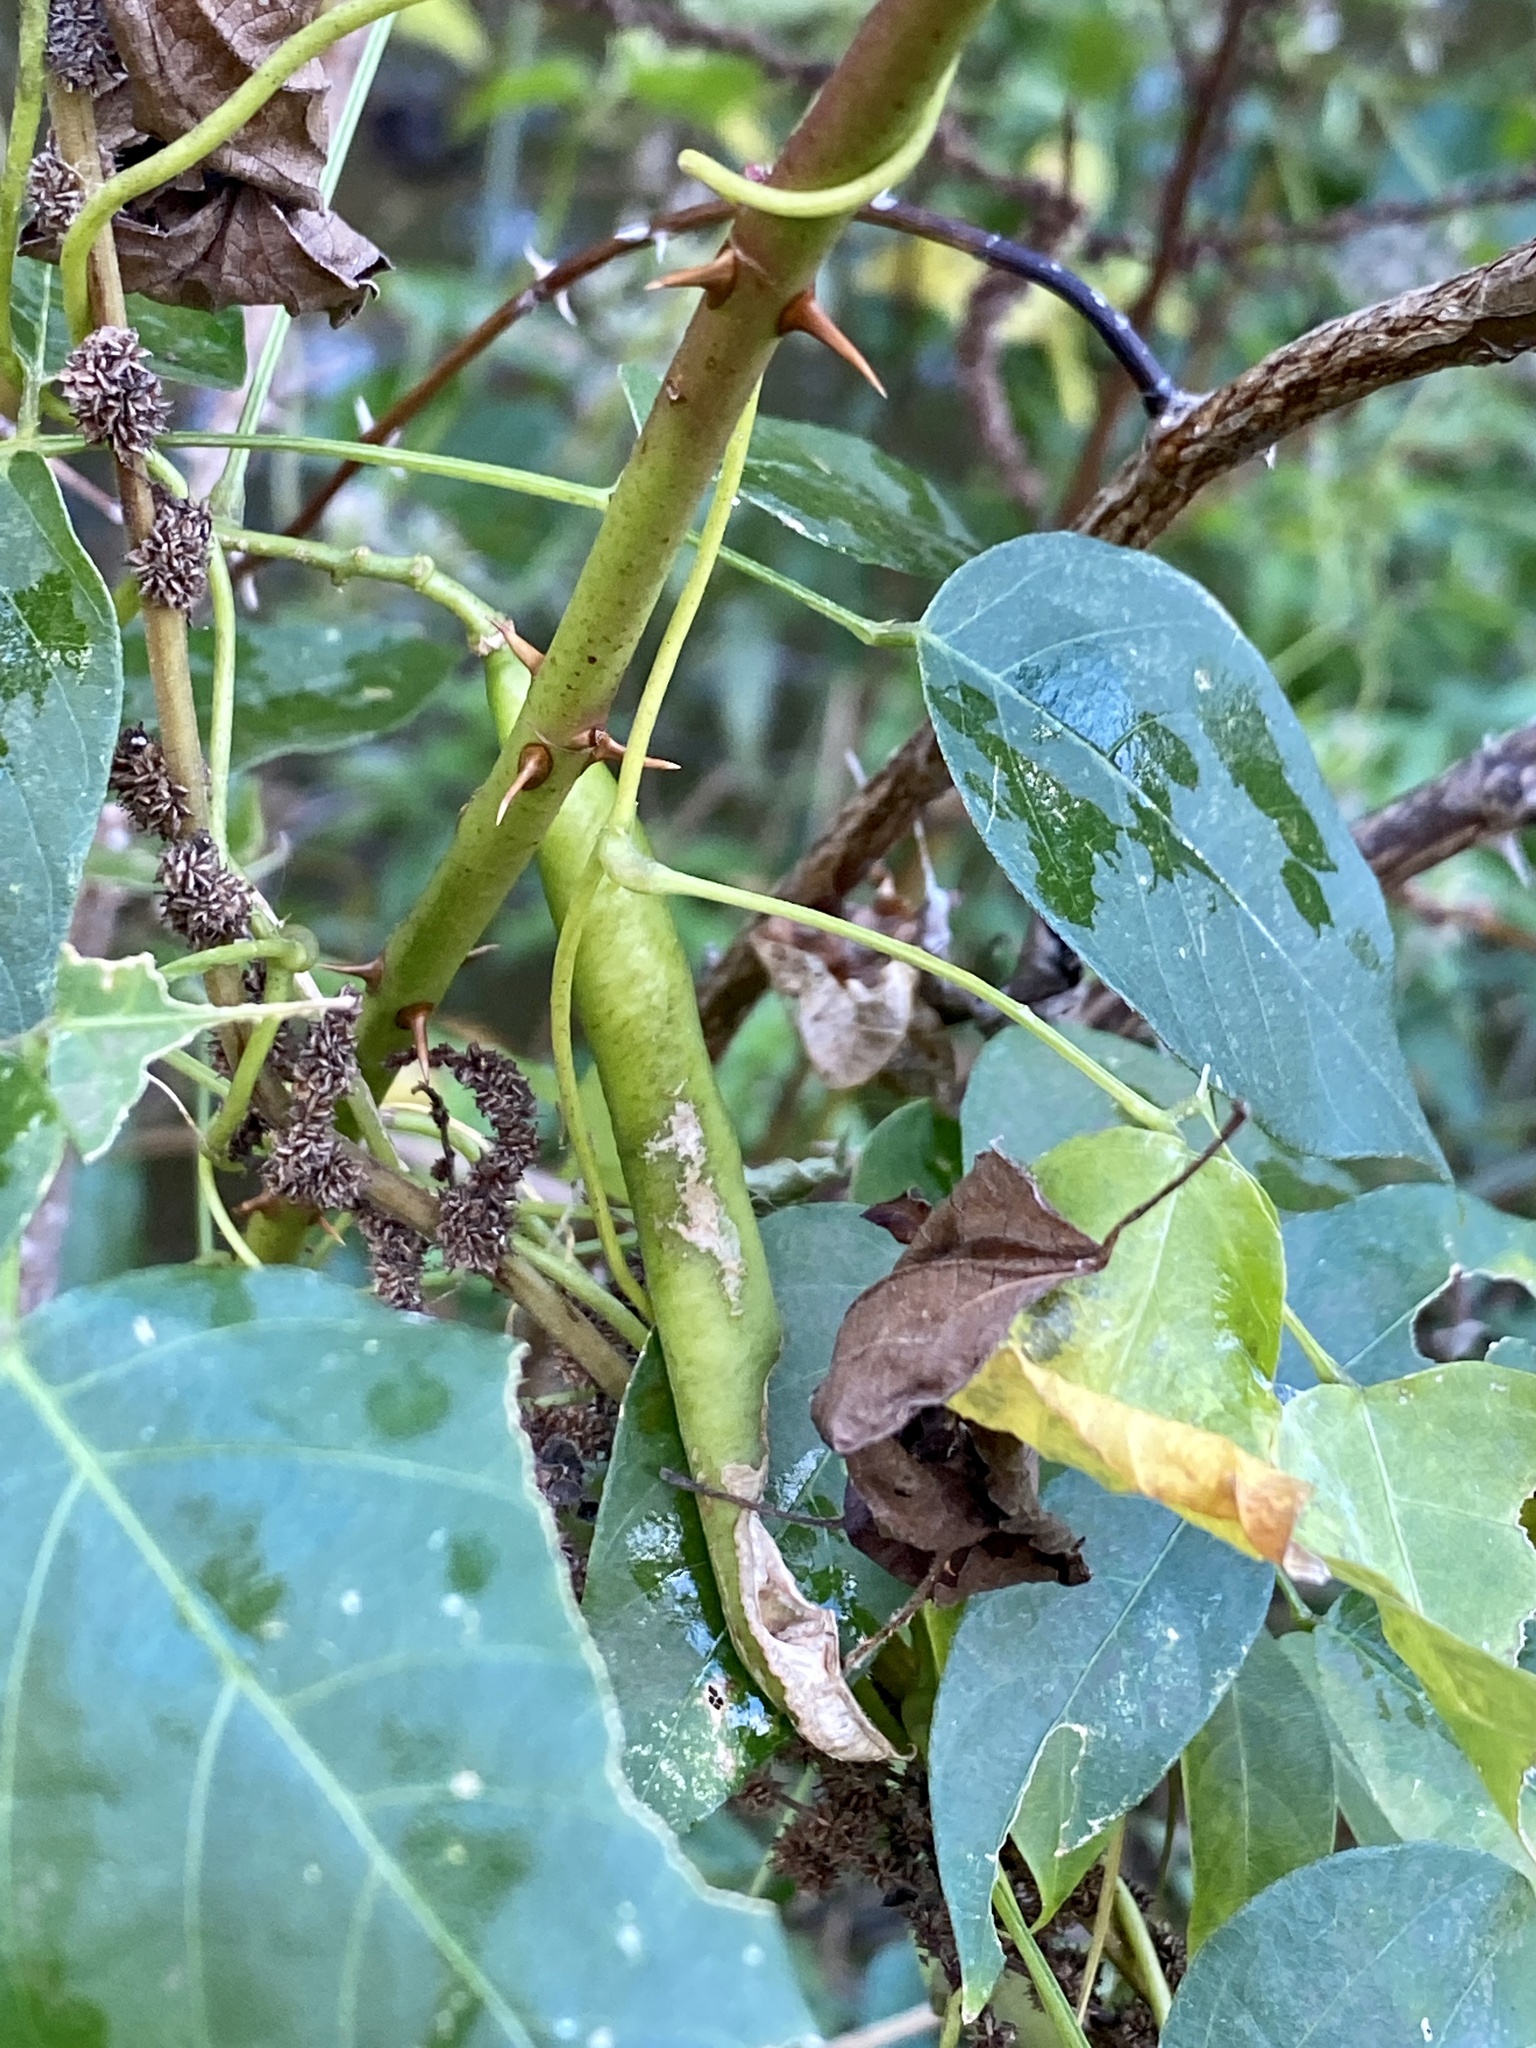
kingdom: Plantae
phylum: Tracheophyta
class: Magnoliopsida
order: Fabales
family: Fabaceae
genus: Apios
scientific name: Apios americana
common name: American potato-bean
